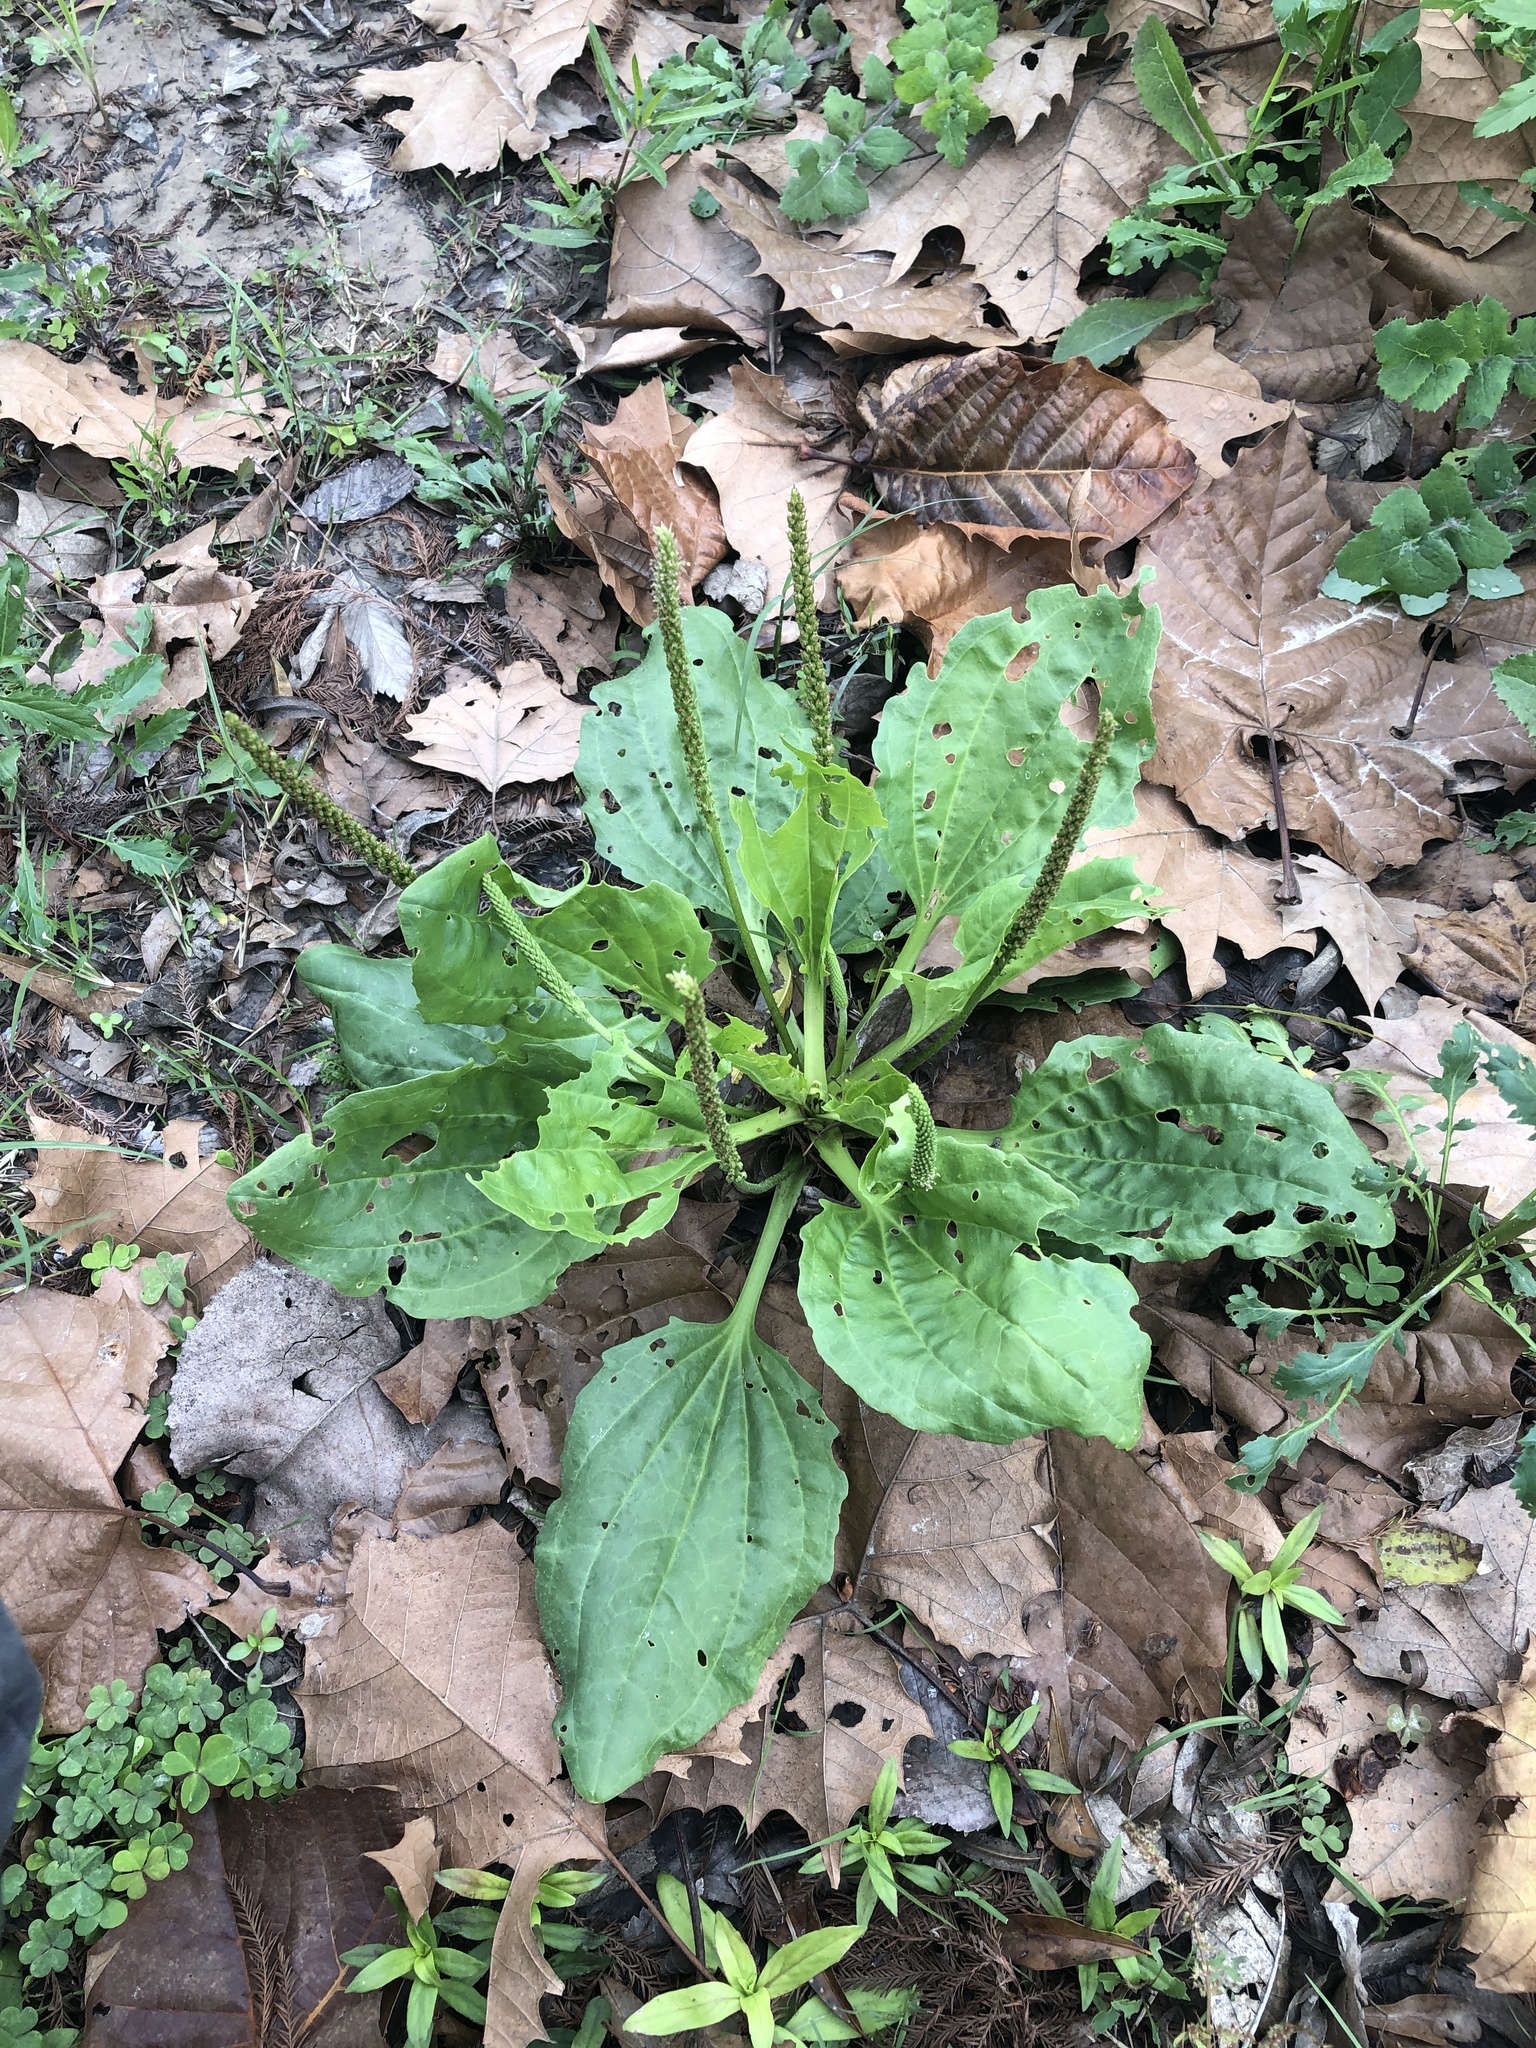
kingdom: Plantae
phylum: Tracheophyta
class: Magnoliopsida
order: Lamiales
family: Plantaginaceae
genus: Plantago
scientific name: Plantago major
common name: Common plantain
